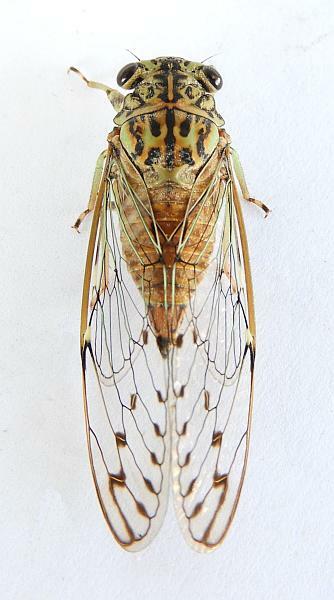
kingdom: Animalia
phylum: Arthropoda
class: Insecta
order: Hemiptera
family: Cicadidae
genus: Neocicada
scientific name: Neocicada hieroglyphica
